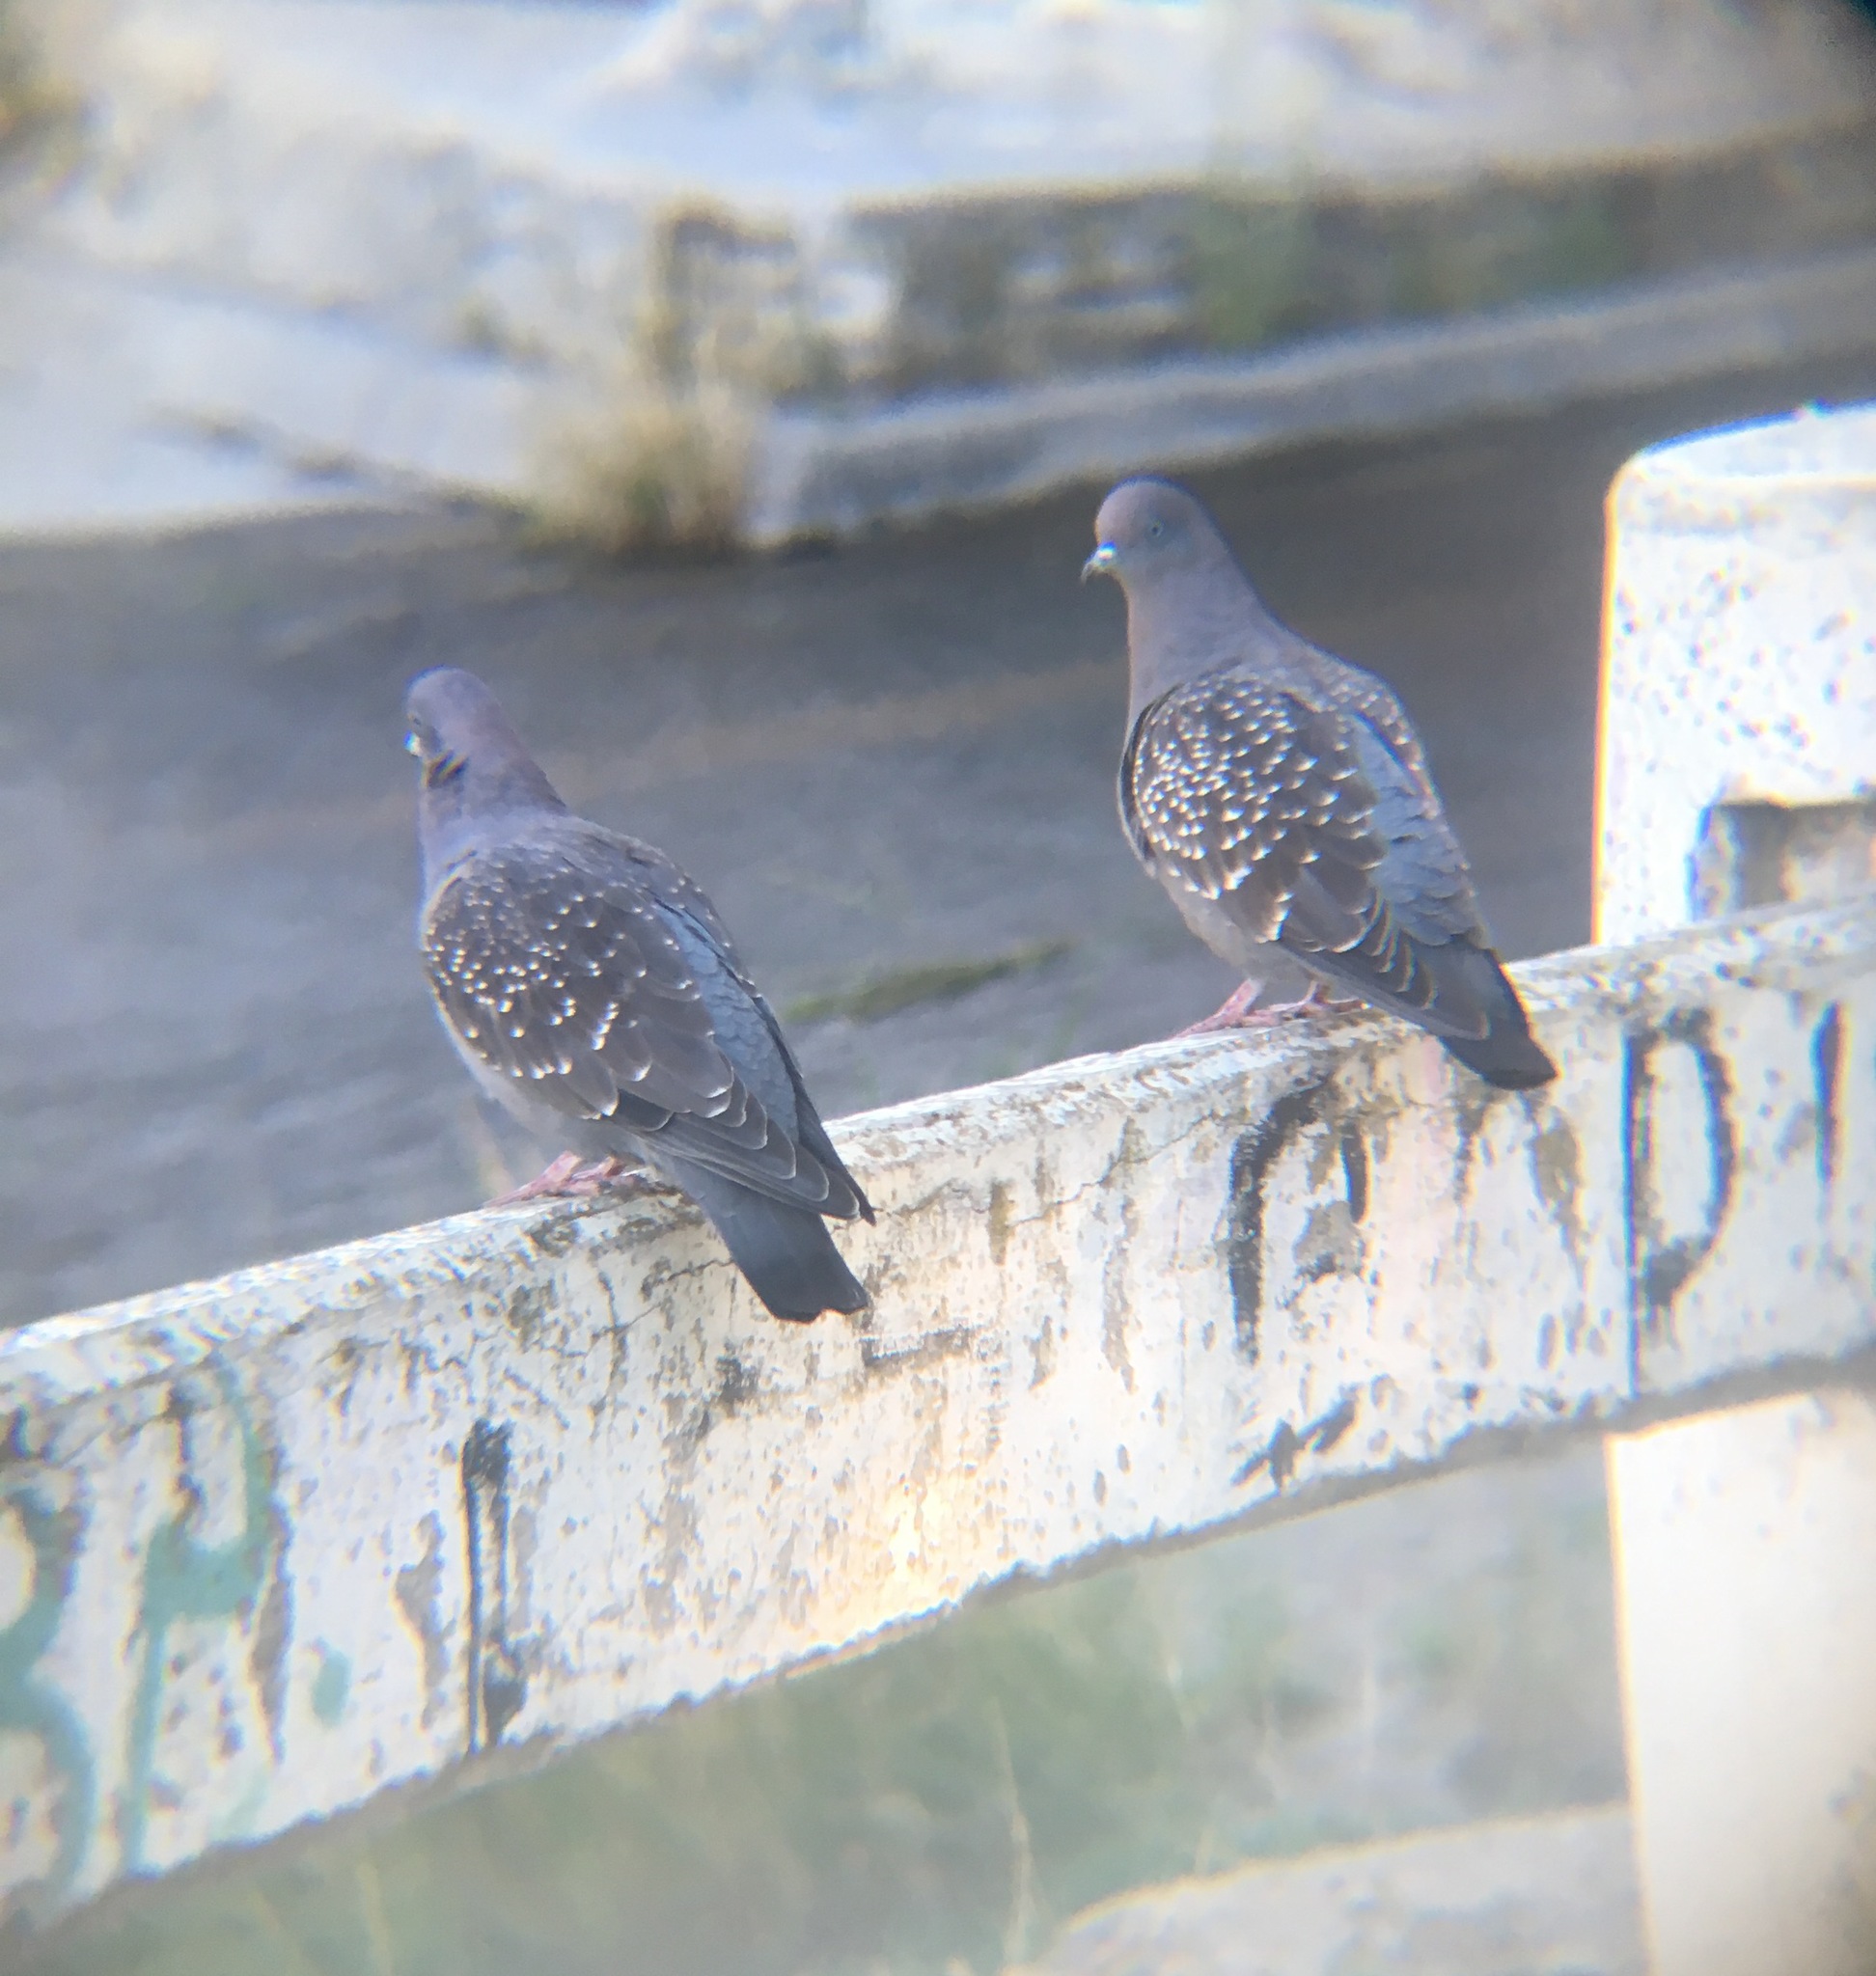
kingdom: Animalia
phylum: Chordata
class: Aves
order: Columbiformes
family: Columbidae
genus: Patagioenas
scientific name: Patagioenas maculosa
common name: Spot-winged pigeon
